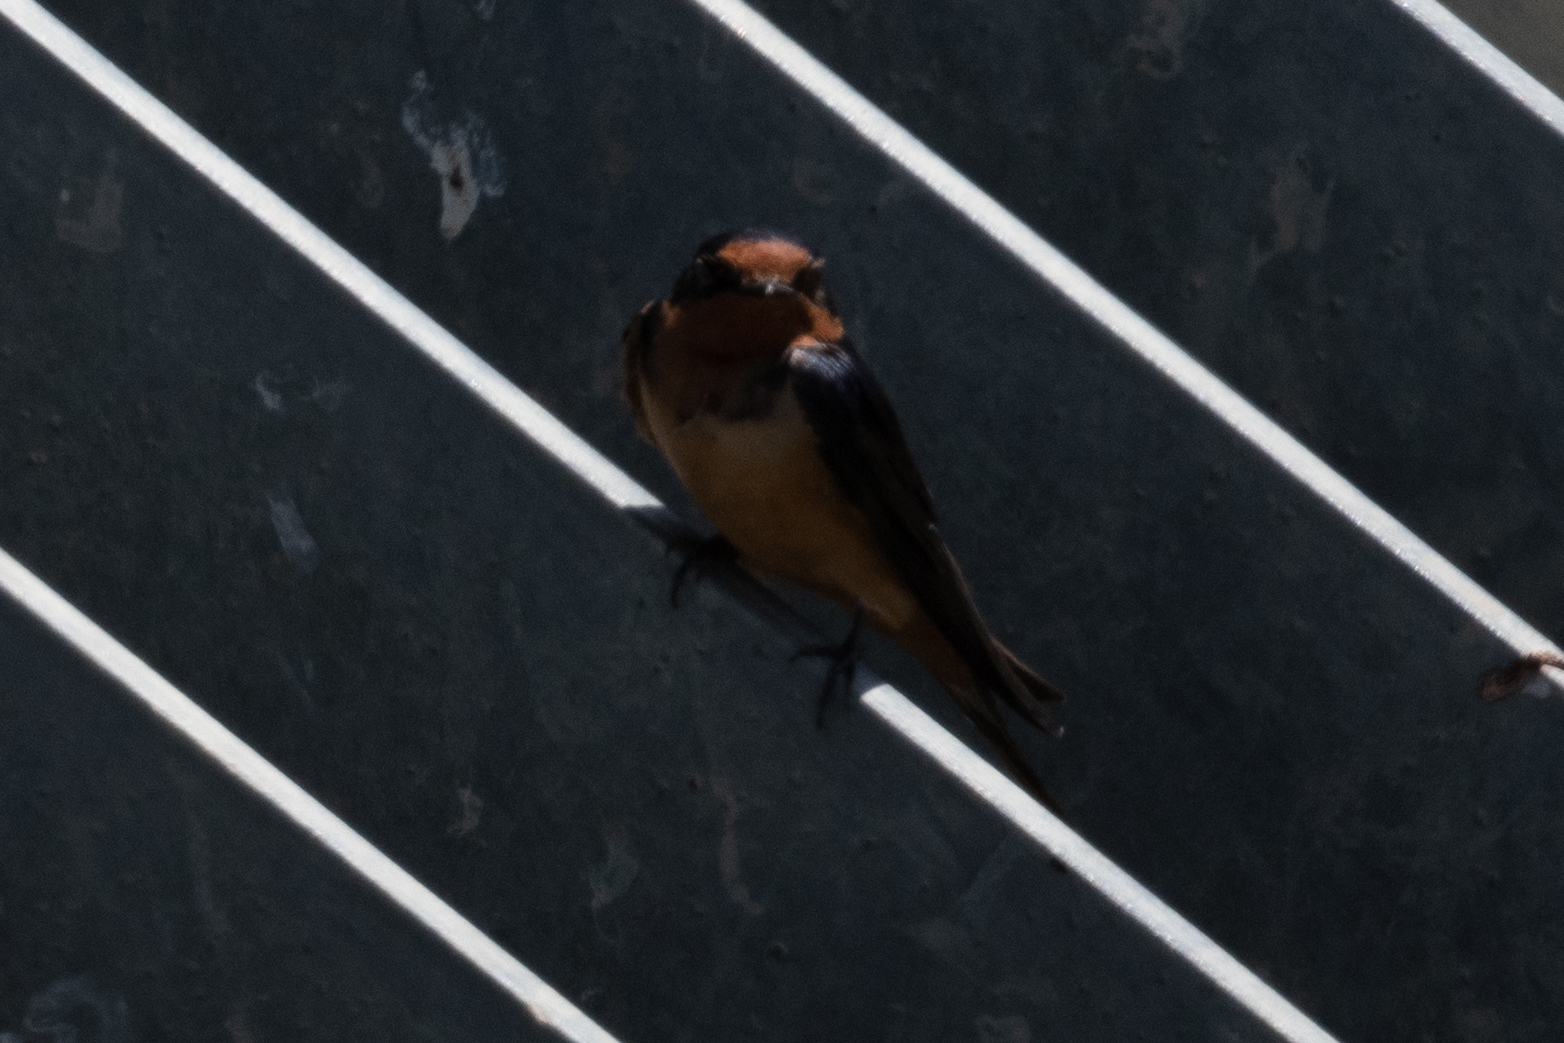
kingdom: Animalia
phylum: Chordata
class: Aves
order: Passeriformes
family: Hirundinidae
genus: Hirundo
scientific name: Hirundo rustica
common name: Barn swallow
